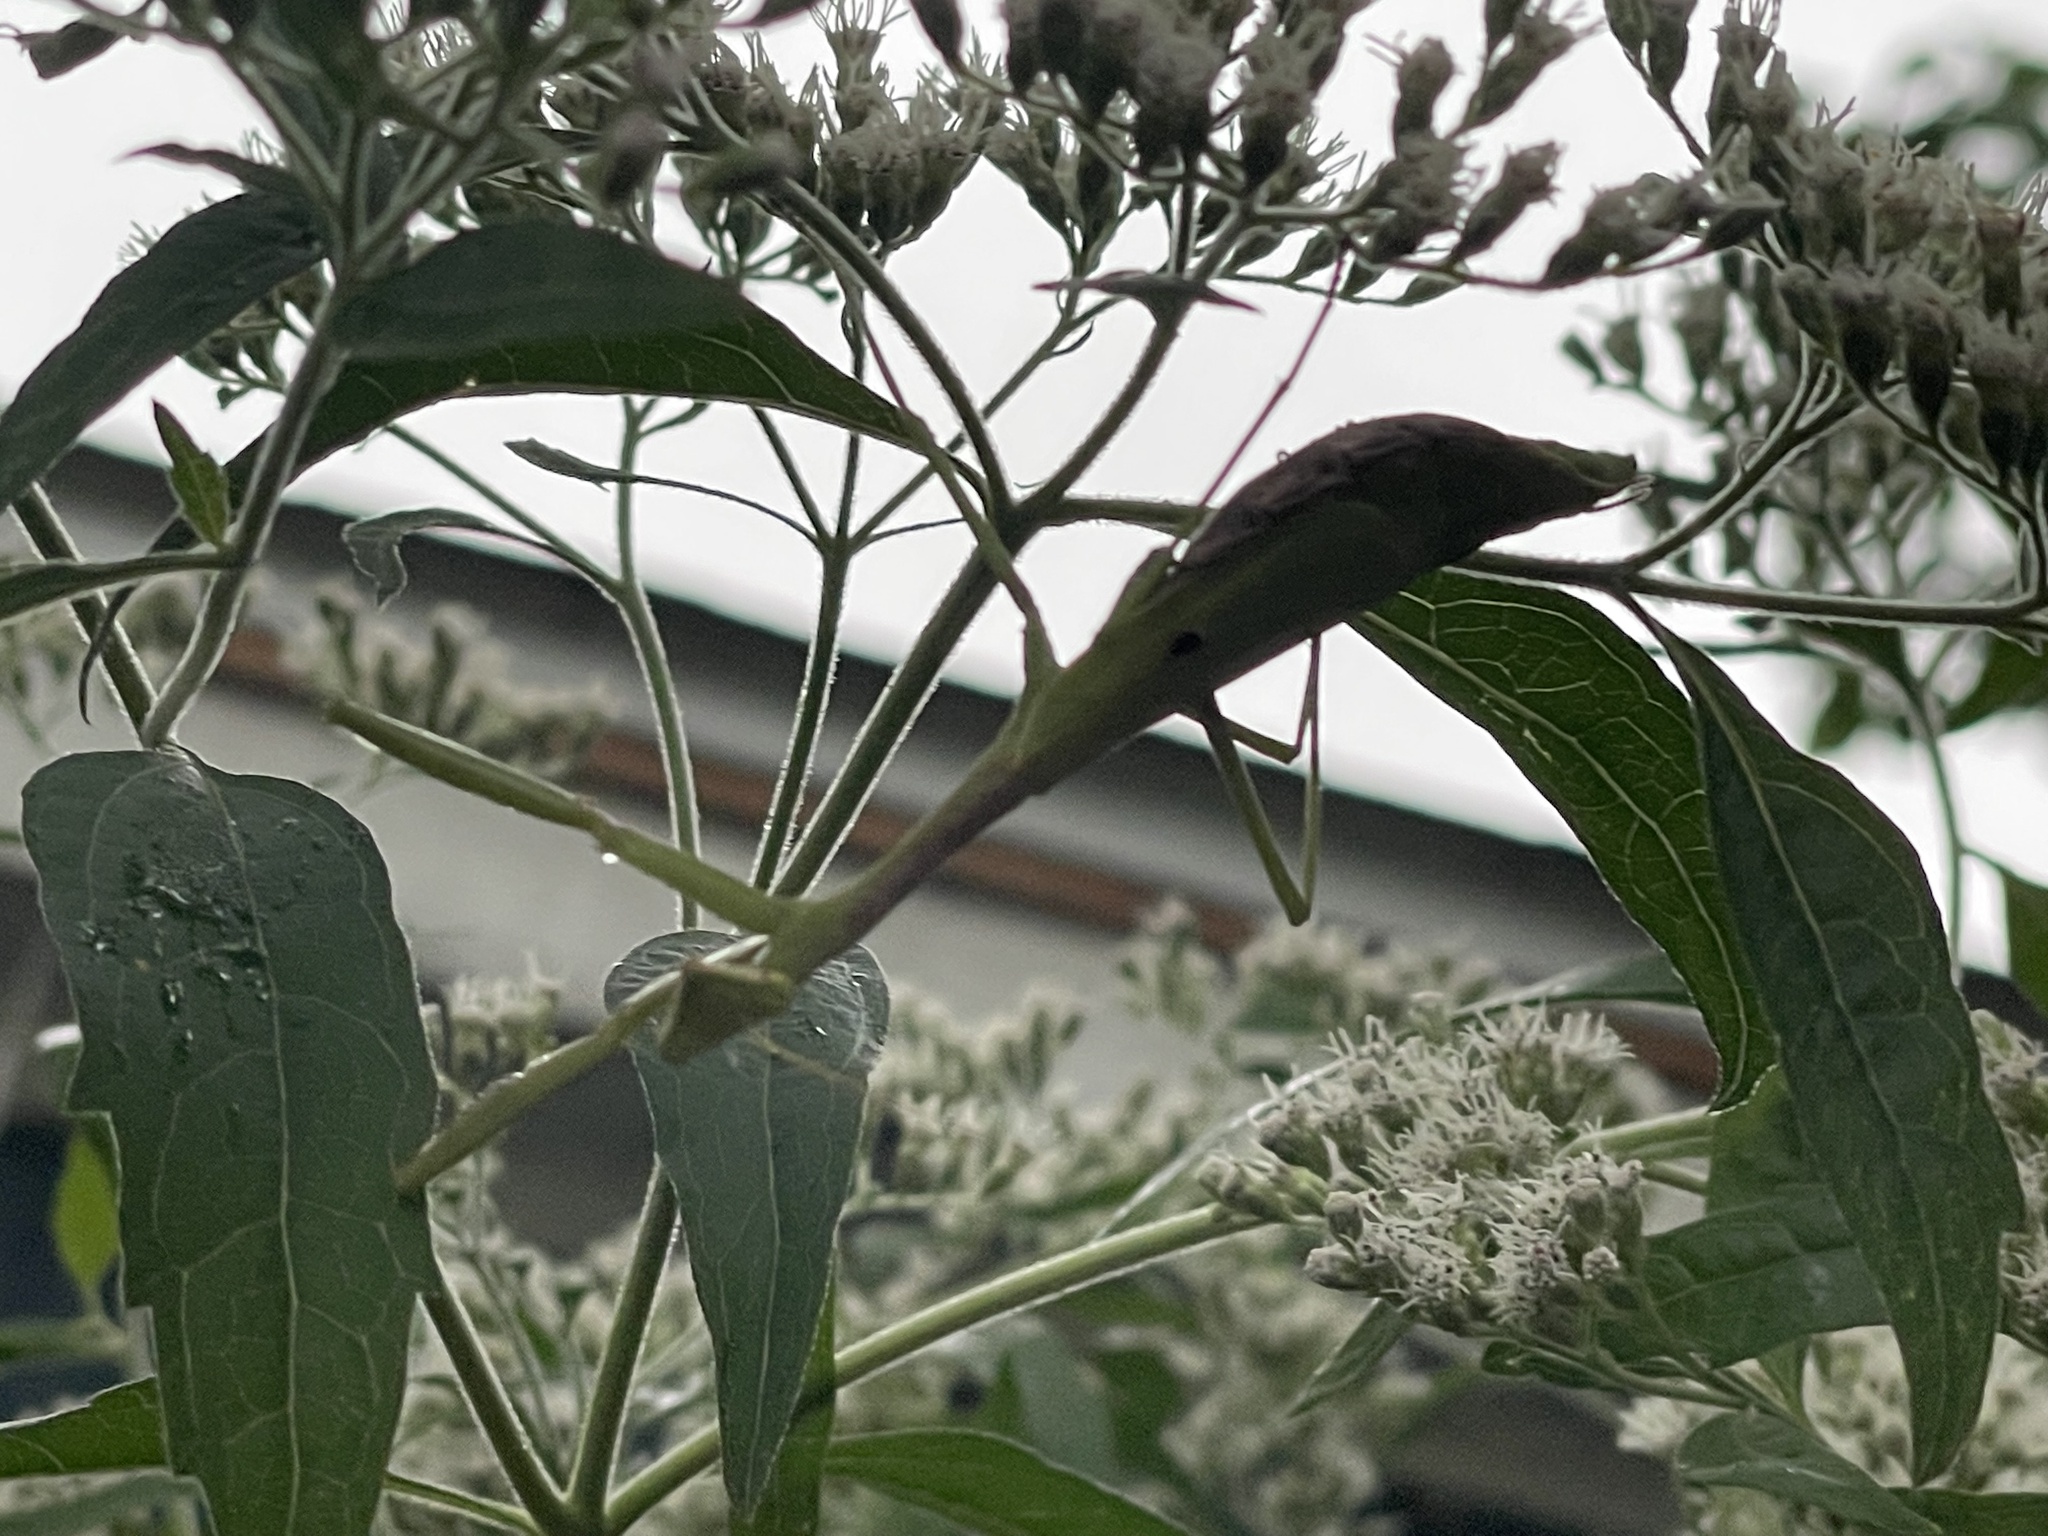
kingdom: Animalia
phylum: Arthropoda
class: Insecta
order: Mantodea
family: Mantidae
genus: Stagmomantis
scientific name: Stagmomantis carolina
